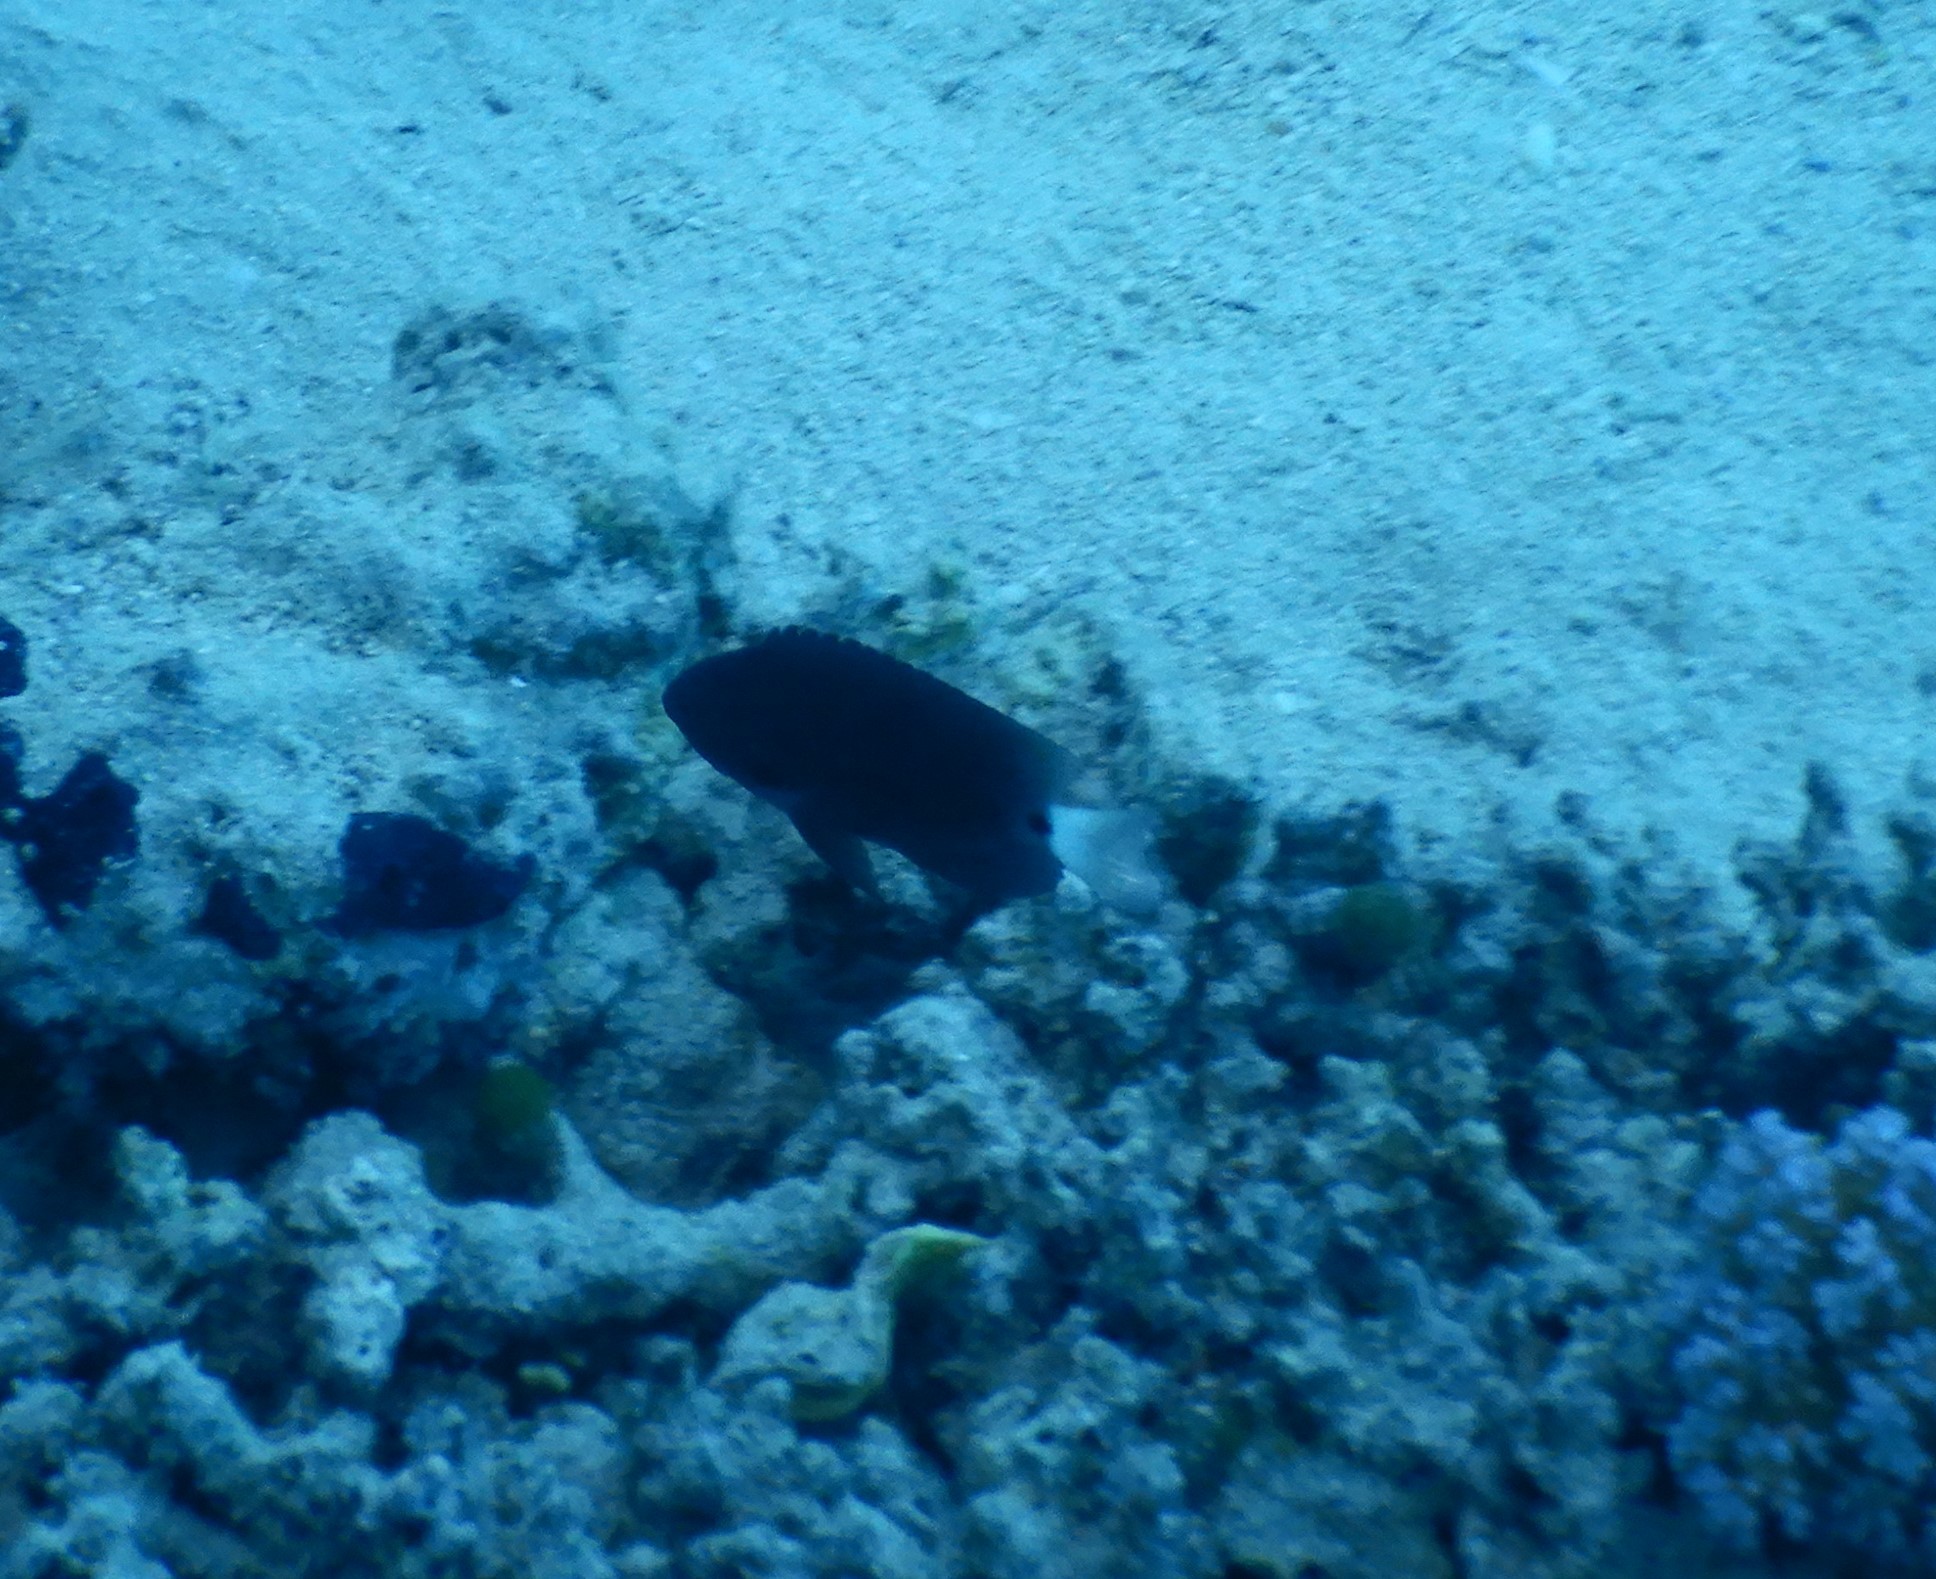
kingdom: Animalia
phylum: Chordata
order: Perciformes
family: Pomacentridae
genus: Pomacentrus
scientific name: Pomacentrus trichrourus
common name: Paletail damsel
